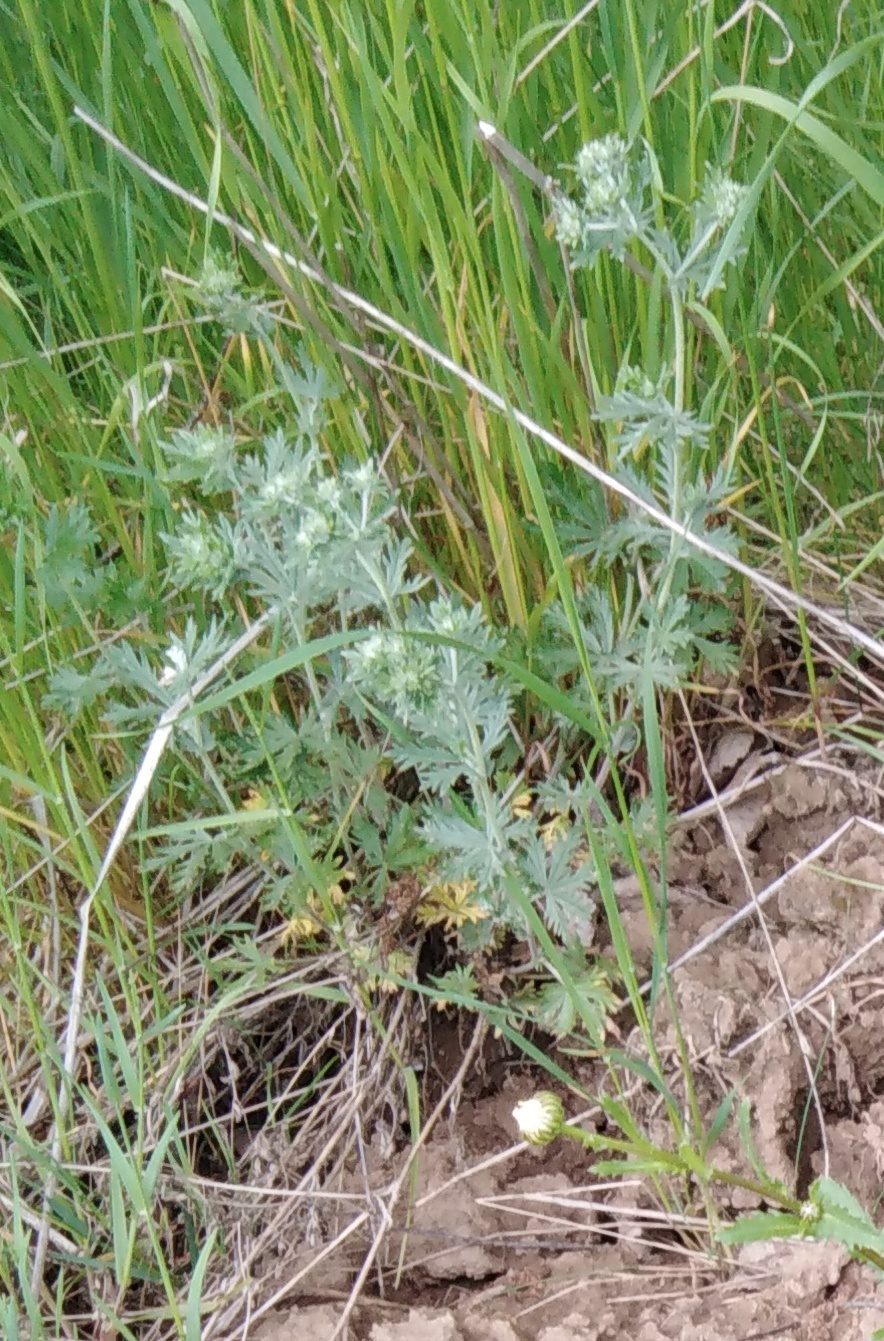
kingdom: Plantae
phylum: Tracheophyta
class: Magnoliopsida
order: Rosales
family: Rosaceae
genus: Potentilla
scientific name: Potentilla argentea
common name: Hoary cinquefoil
